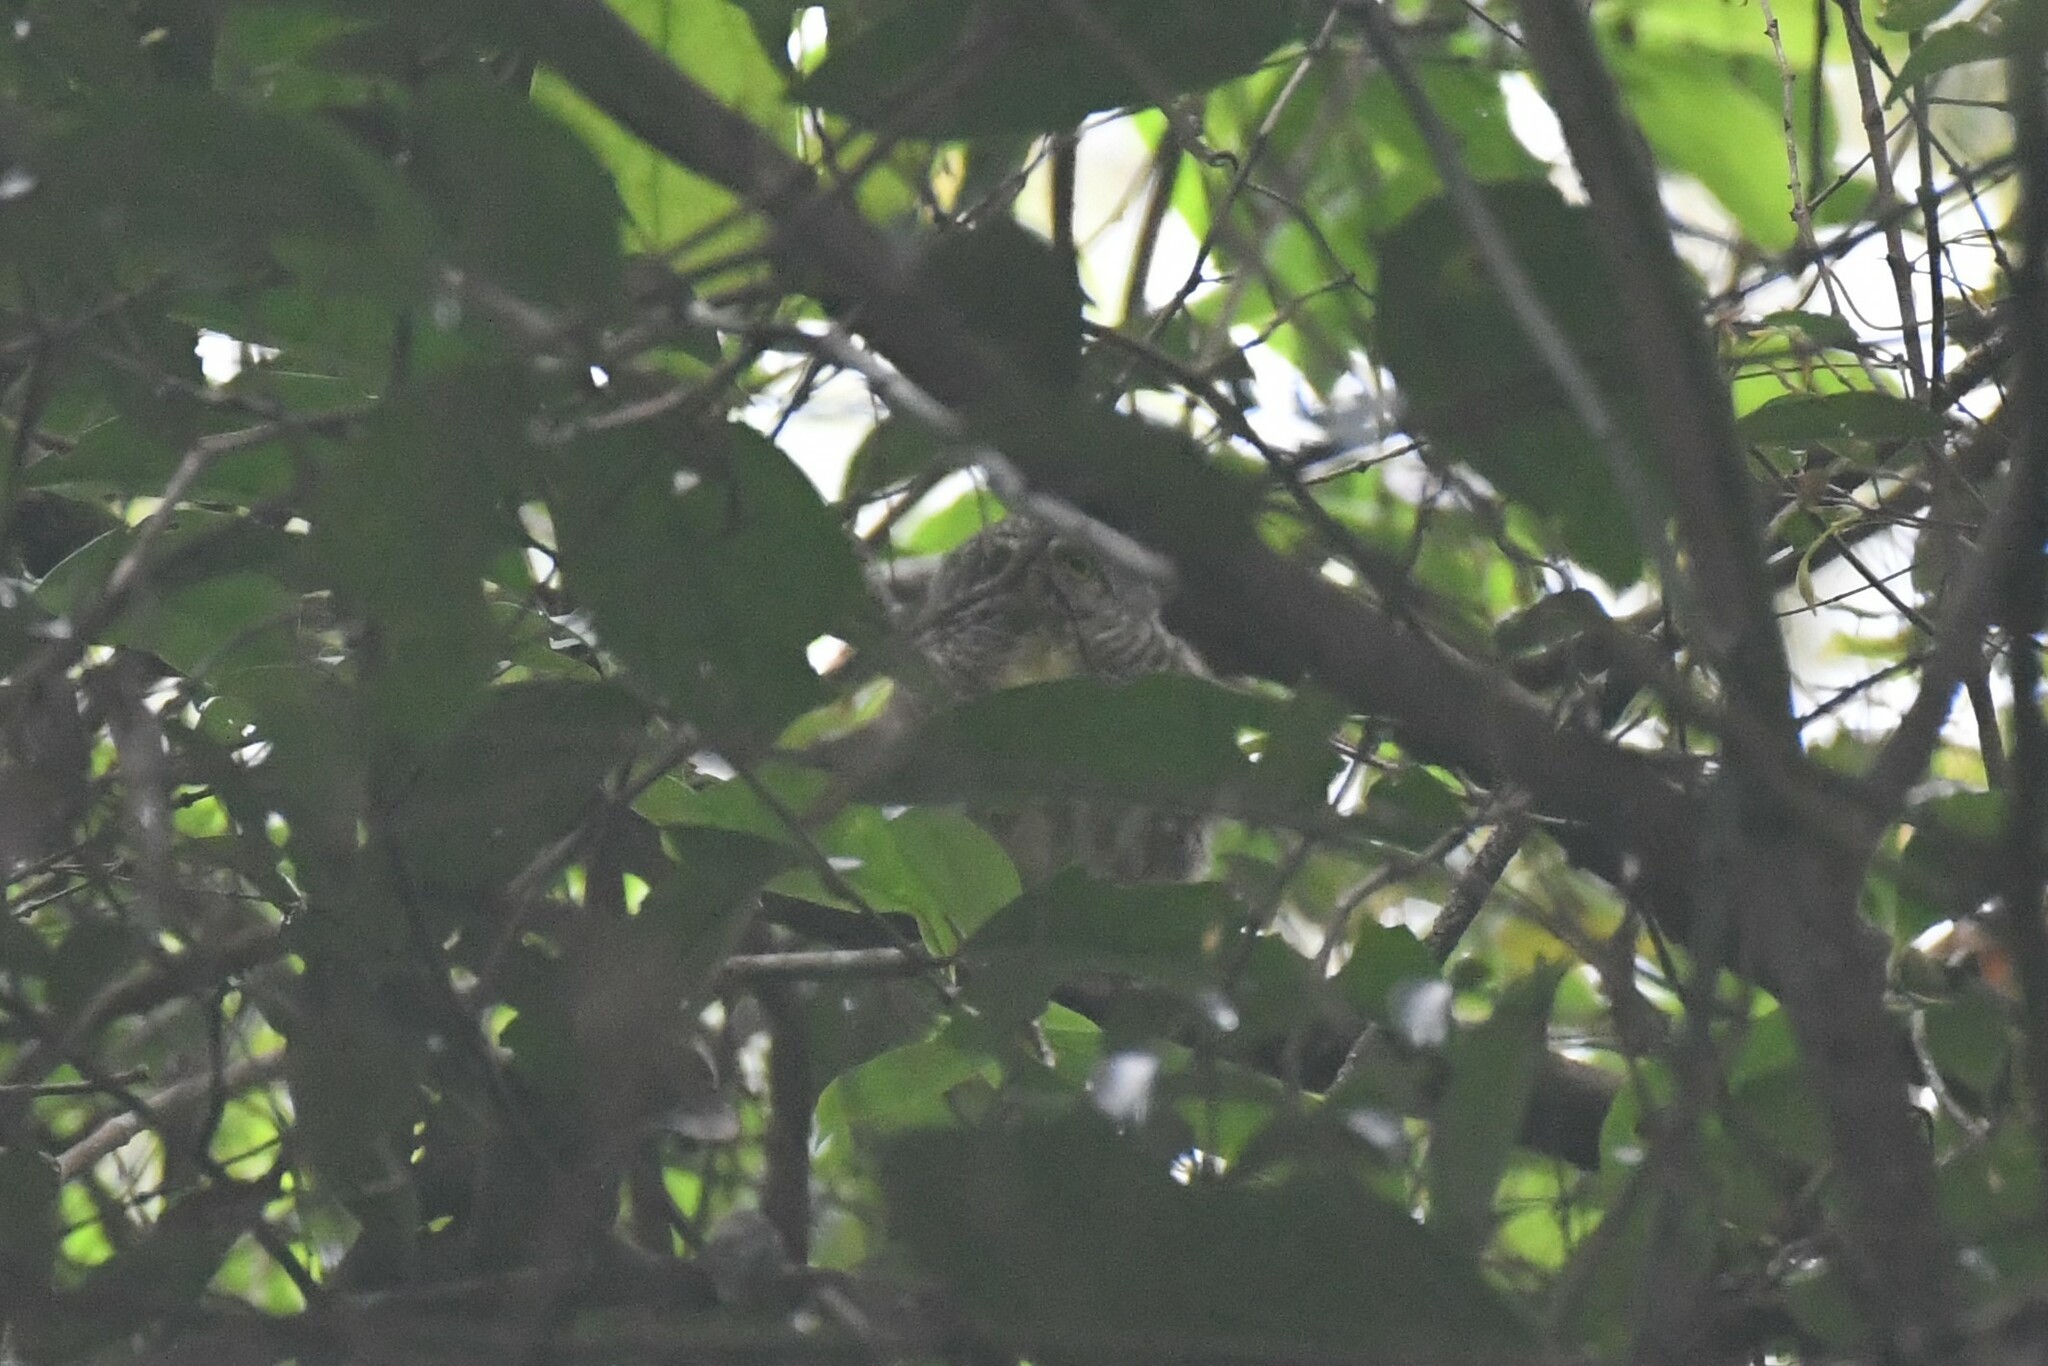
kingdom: Animalia
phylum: Chordata
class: Aves
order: Strigiformes
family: Strigidae
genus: Glaucidium
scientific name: Glaucidium brodiei
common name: Collared owlet
